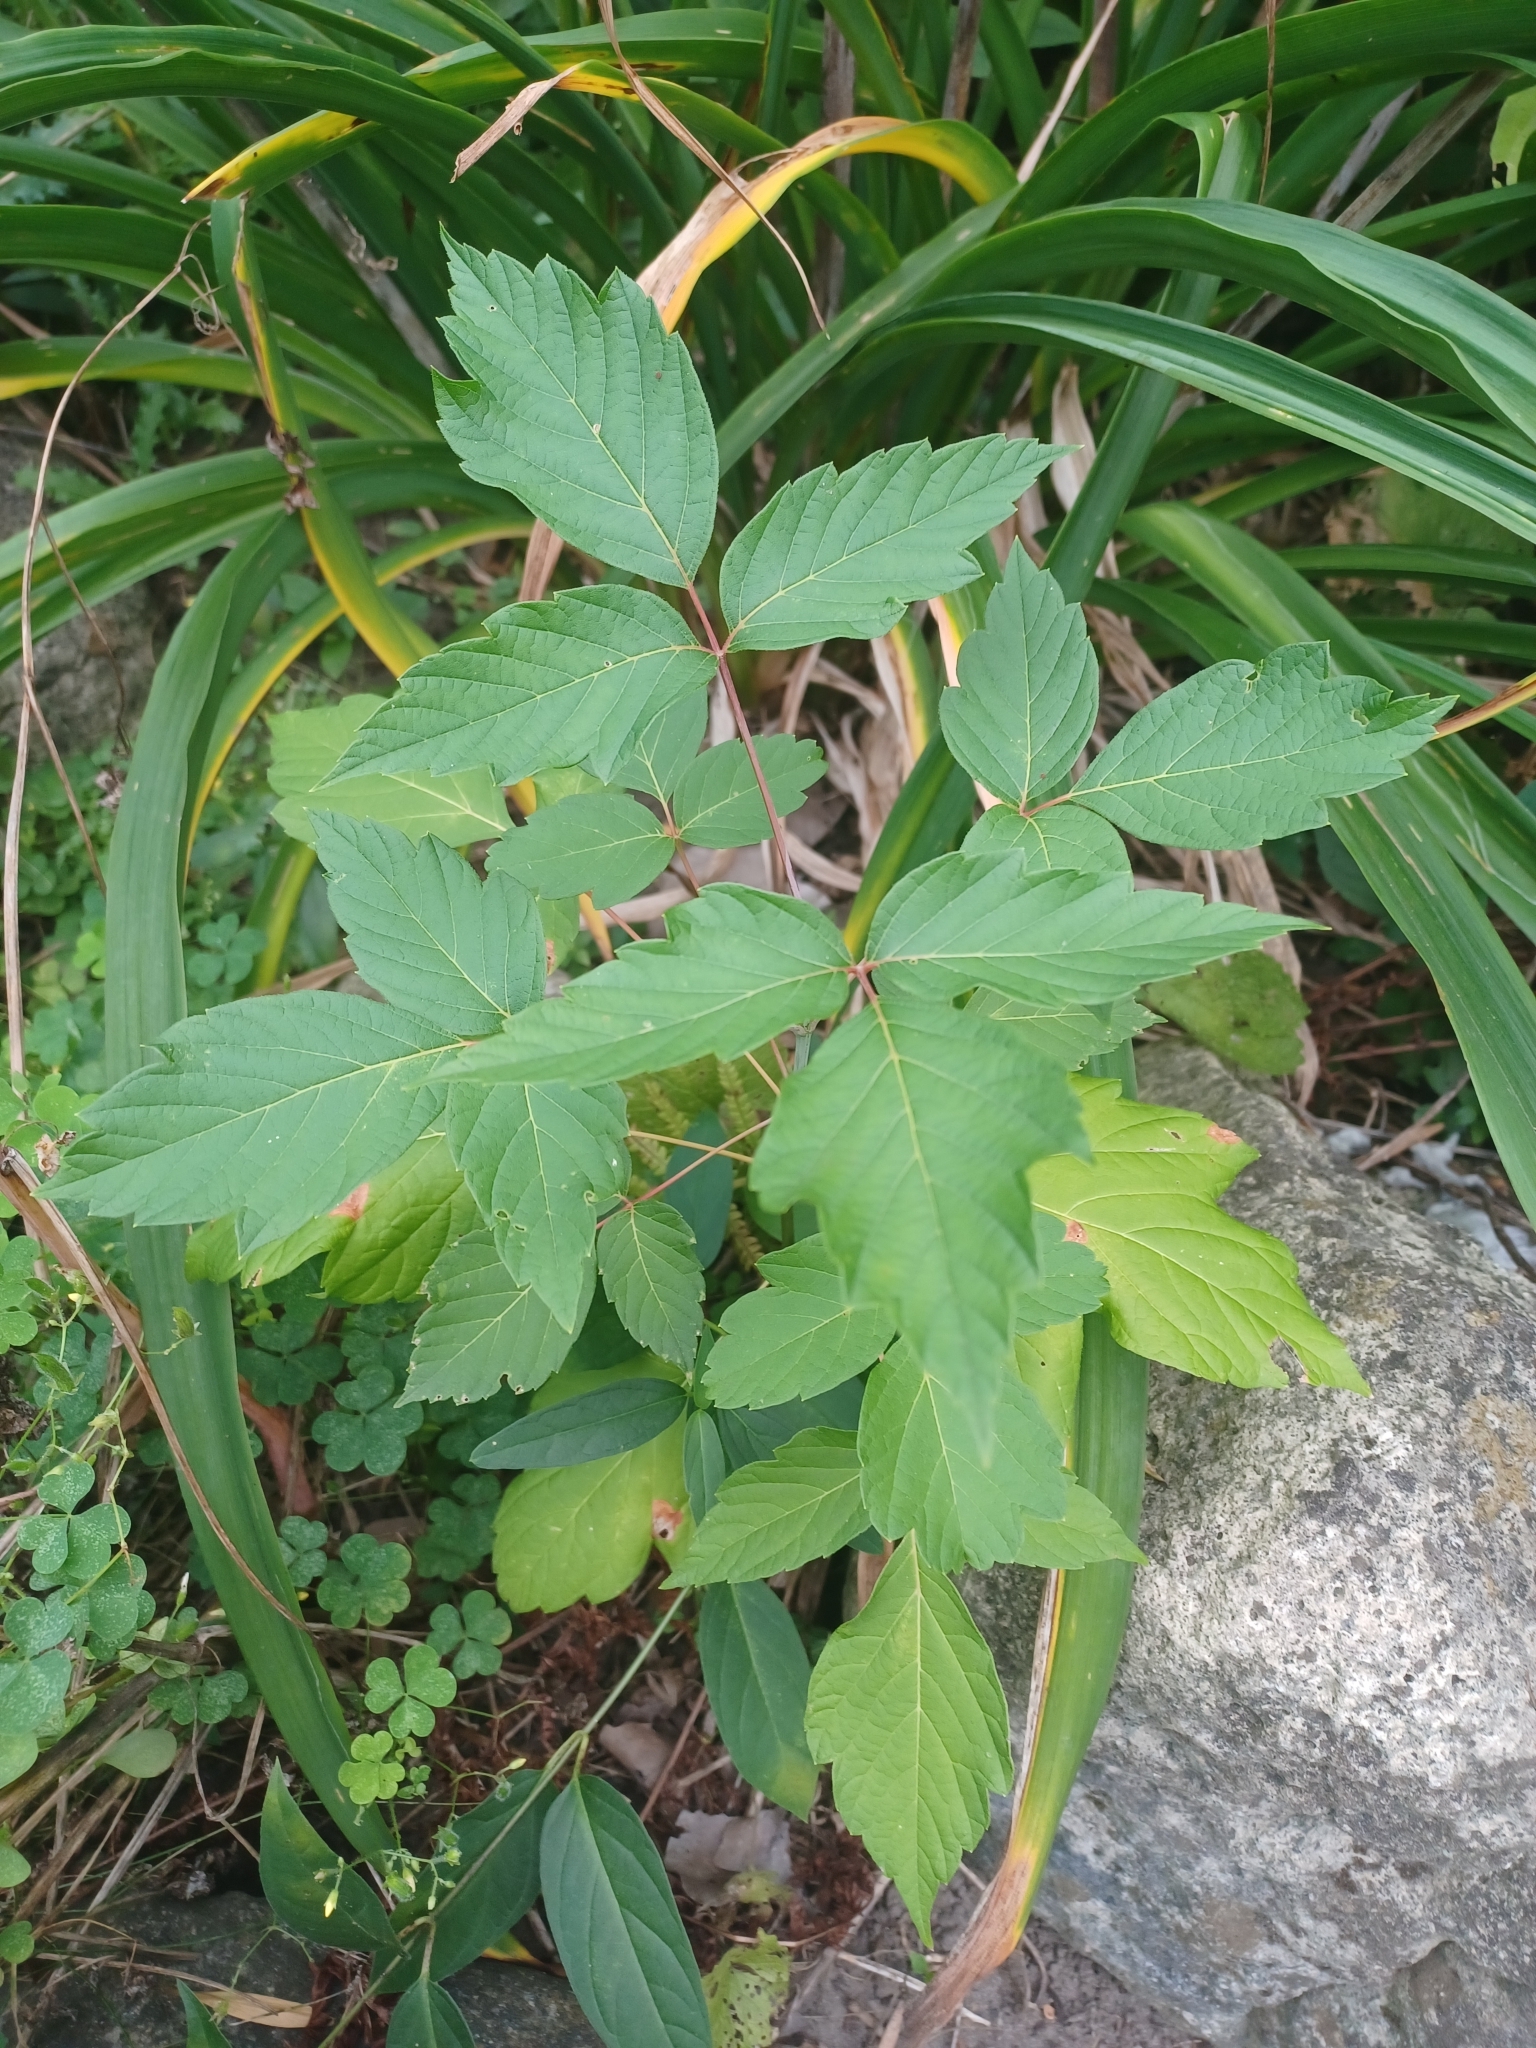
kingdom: Plantae
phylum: Tracheophyta
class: Magnoliopsida
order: Sapindales
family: Sapindaceae
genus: Acer
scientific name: Acer negundo
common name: Ashleaf maple
